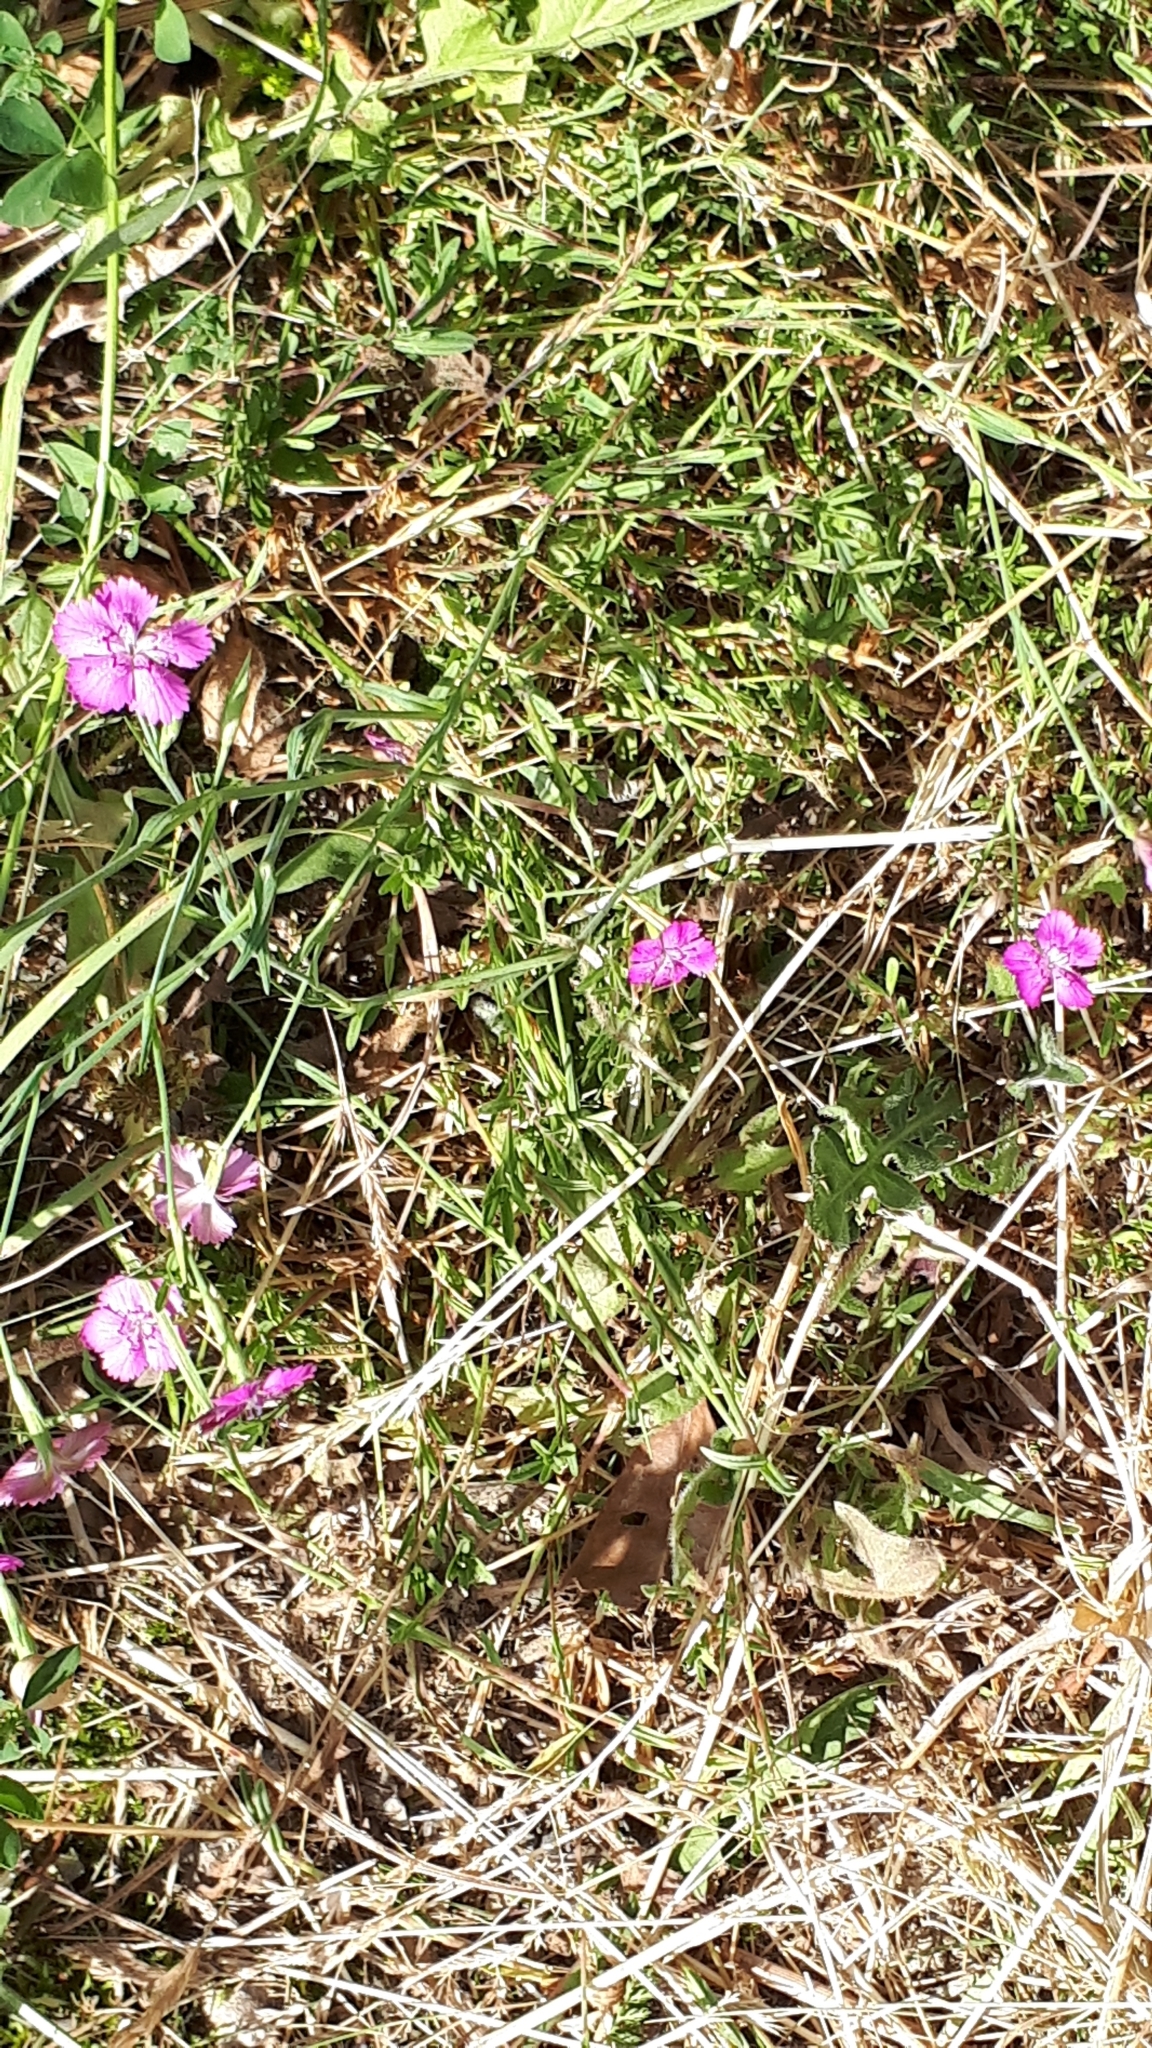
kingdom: Plantae
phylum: Tracheophyta
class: Magnoliopsida
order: Caryophyllales
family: Caryophyllaceae
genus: Dianthus
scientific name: Dianthus deltoides
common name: Maiden pink
